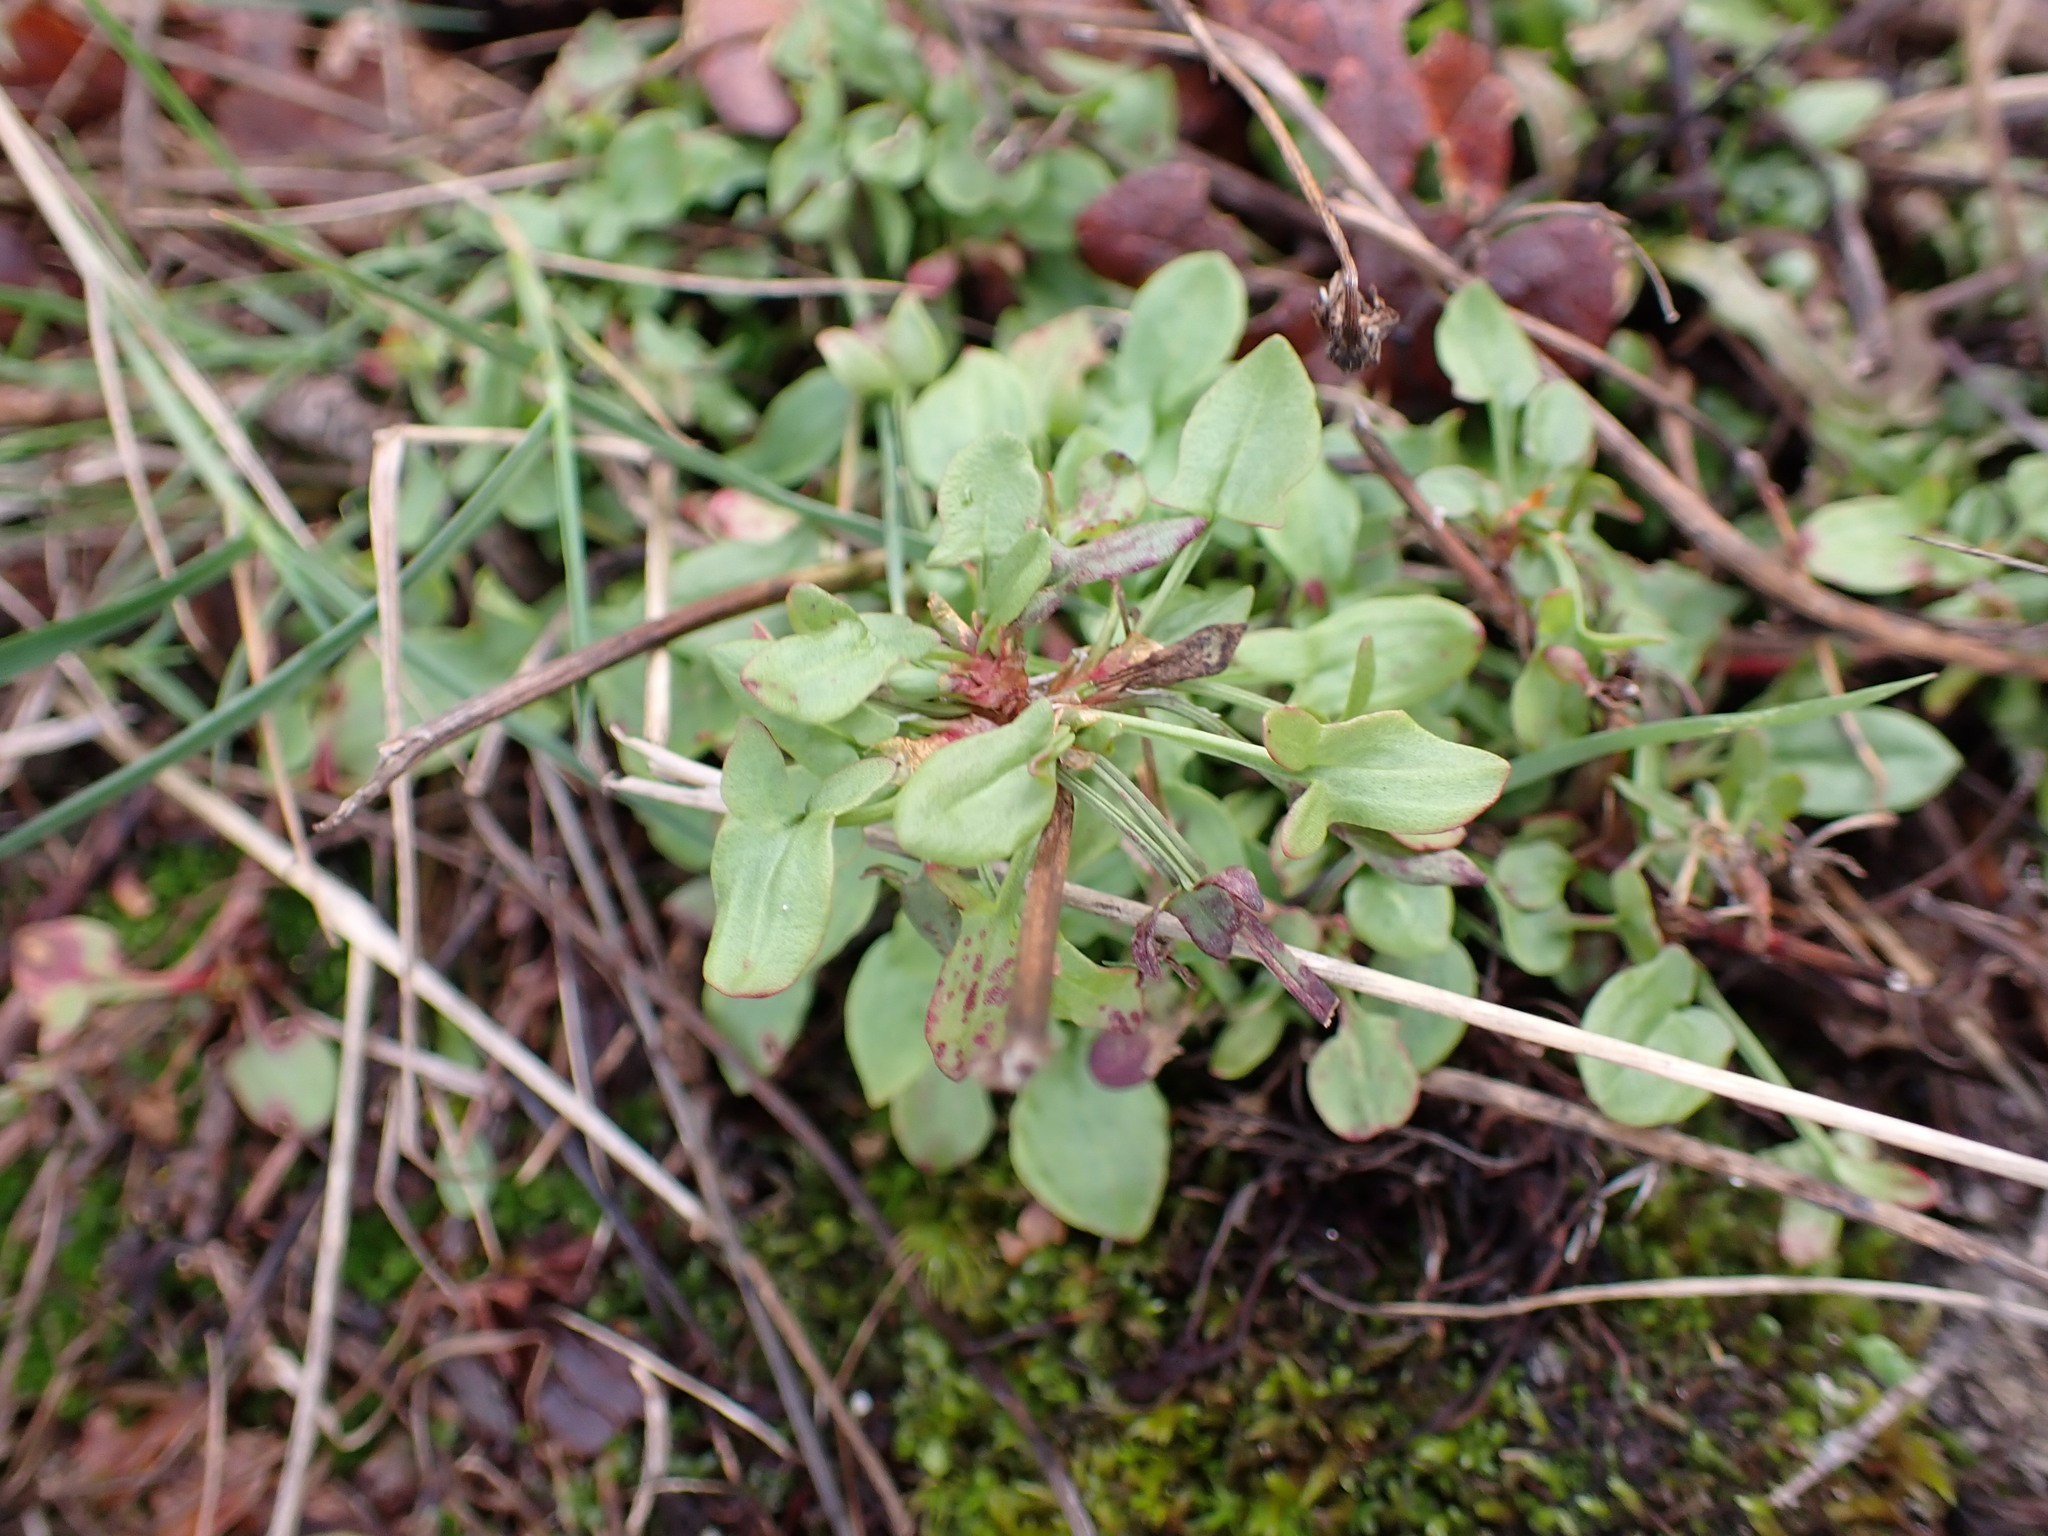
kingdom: Plantae
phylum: Tracheophyta
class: Magnoliopsida
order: Caryophyllales
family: Polygonaceae
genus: Rumex
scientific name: Rumex acetosella
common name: Common sheep sorrel
